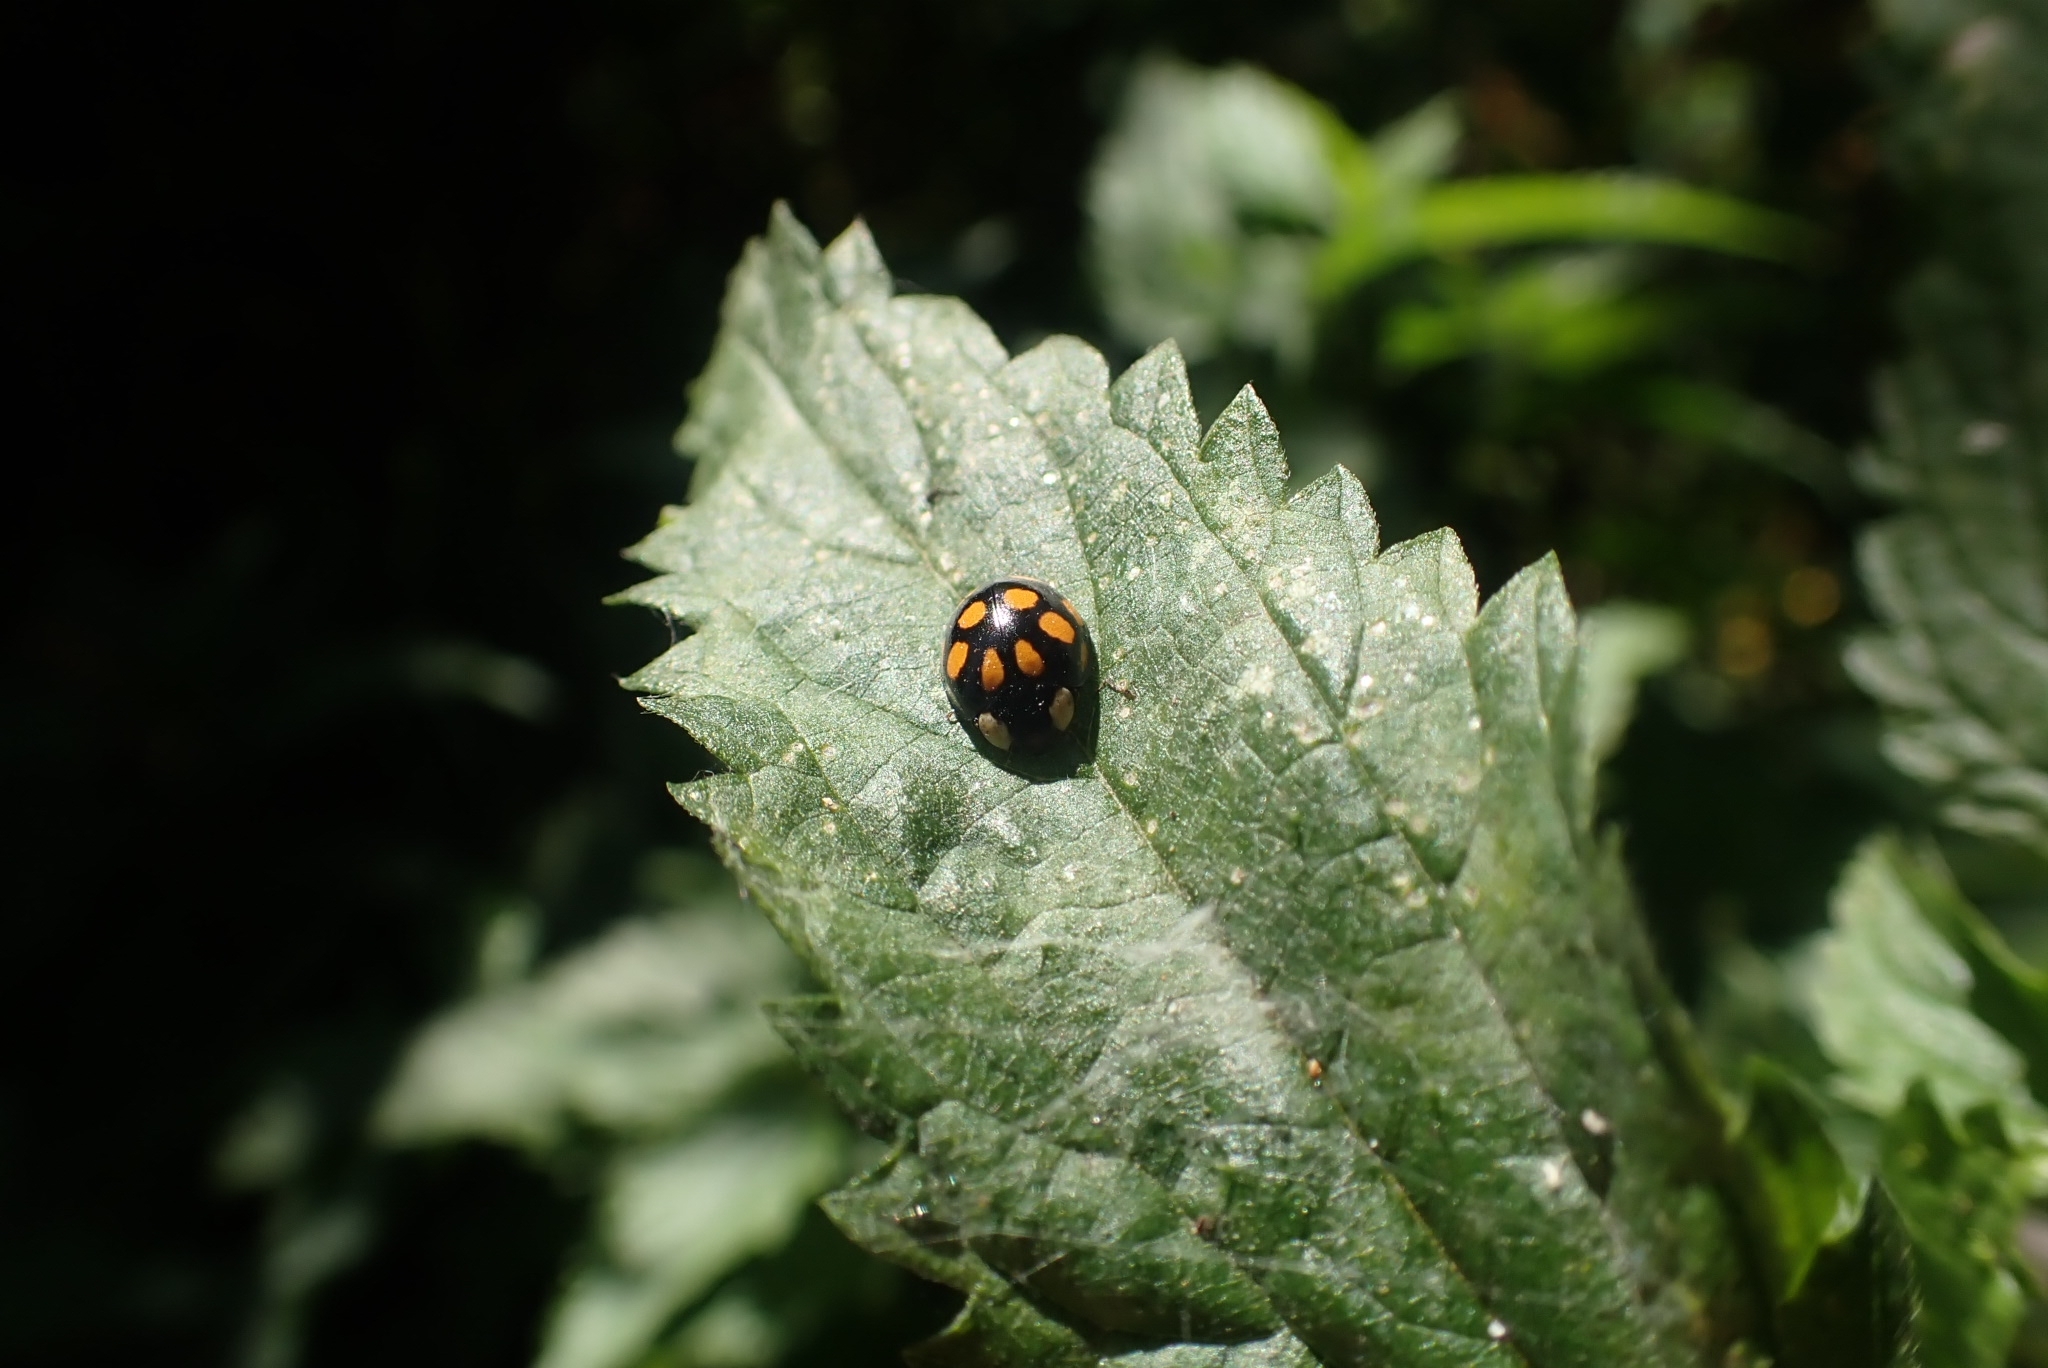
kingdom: Animalia
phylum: Arthropoda
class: Insecta
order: Coleoptera
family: Coccinellidae
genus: Harmonia
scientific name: Harmonia axyridis
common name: Harlequin ladybird
